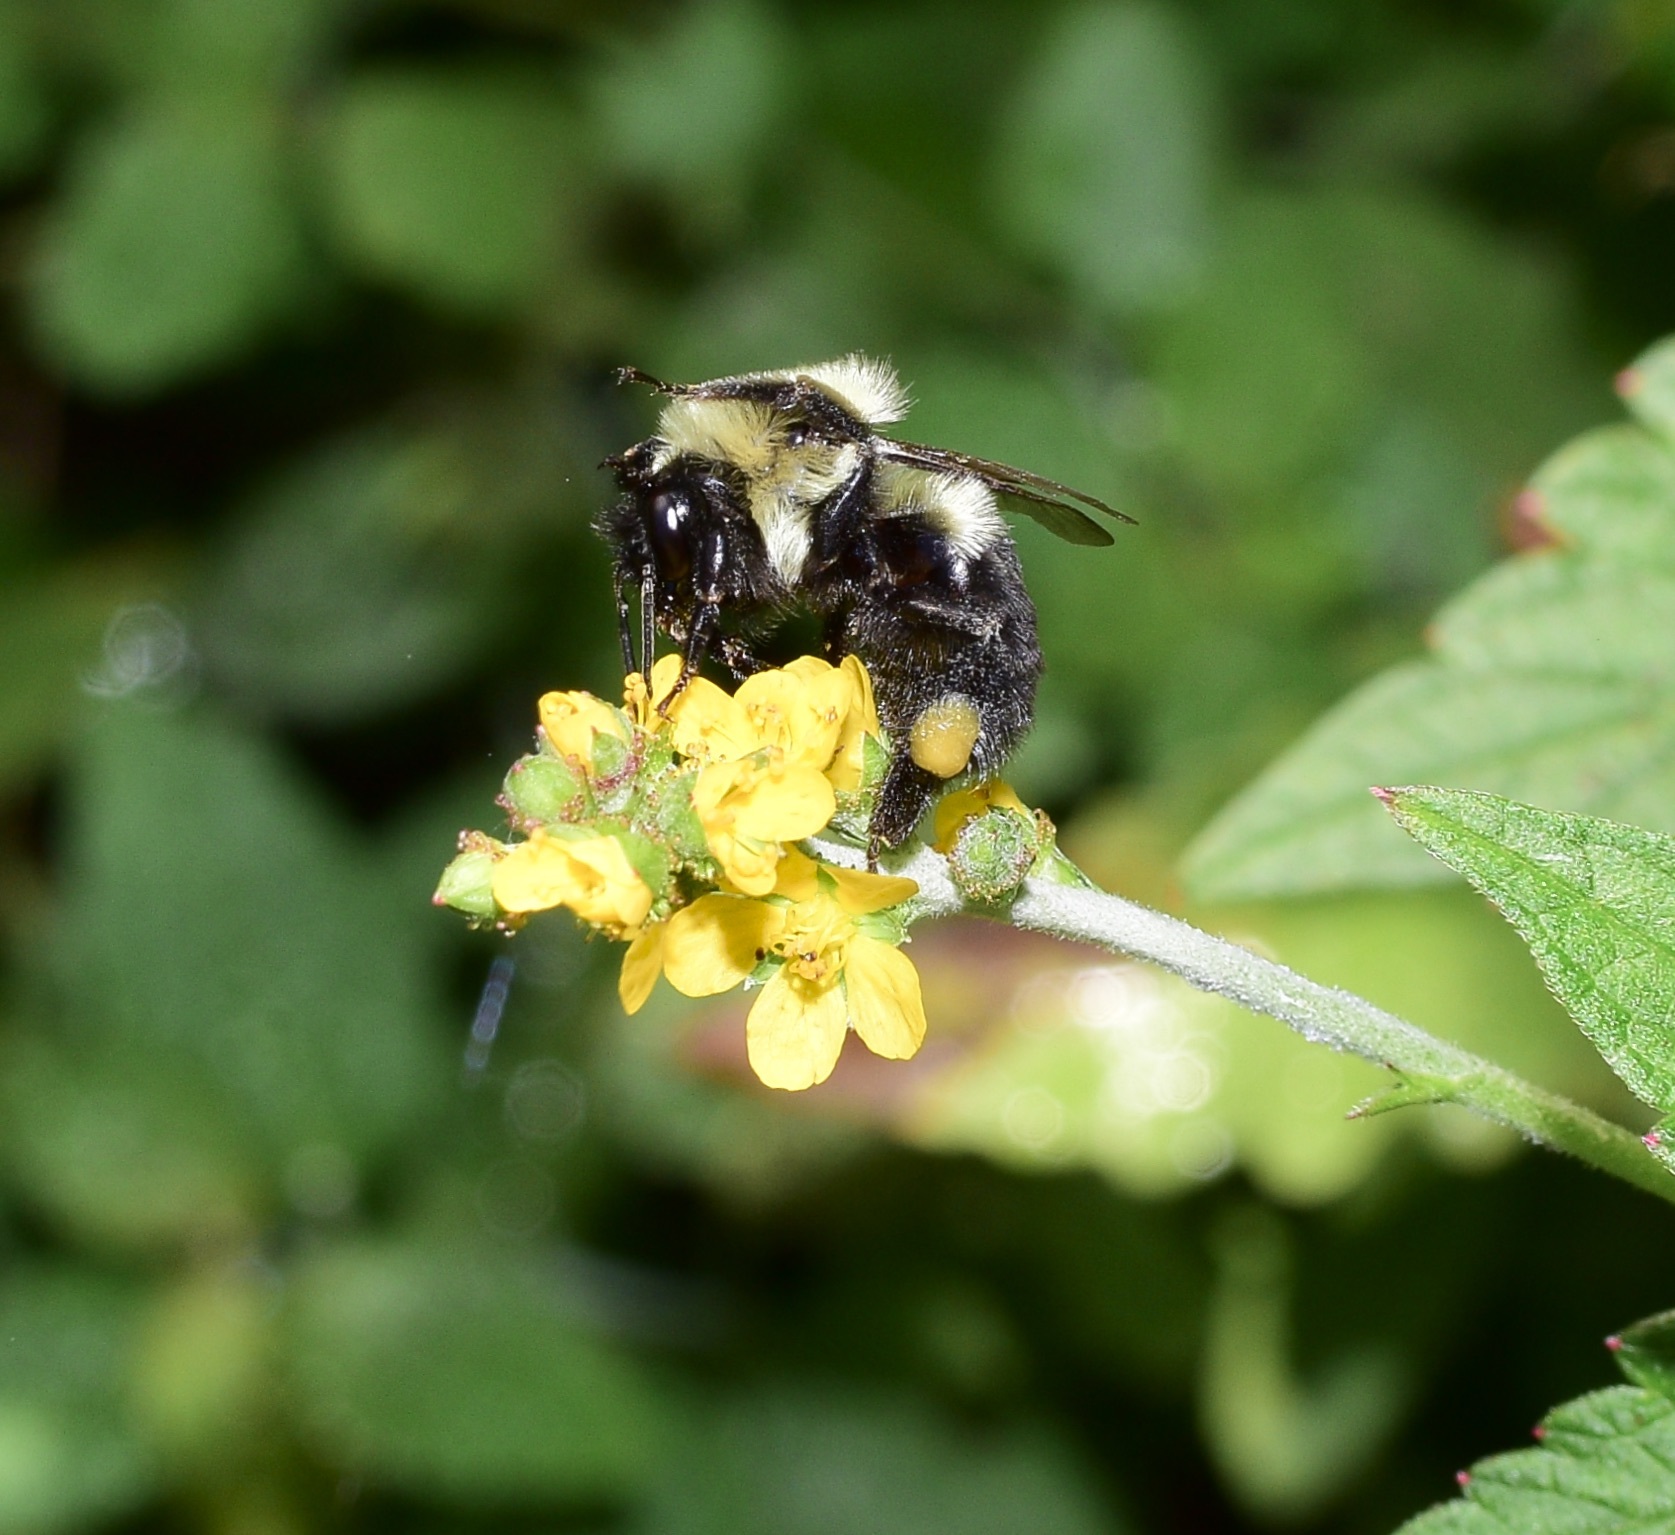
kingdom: Animalia
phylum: Arthropoda
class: Insecta
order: Hymenoptera
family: Apidae
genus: Bombus
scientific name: Bombus impatiens
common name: Common eastern bumble bee
